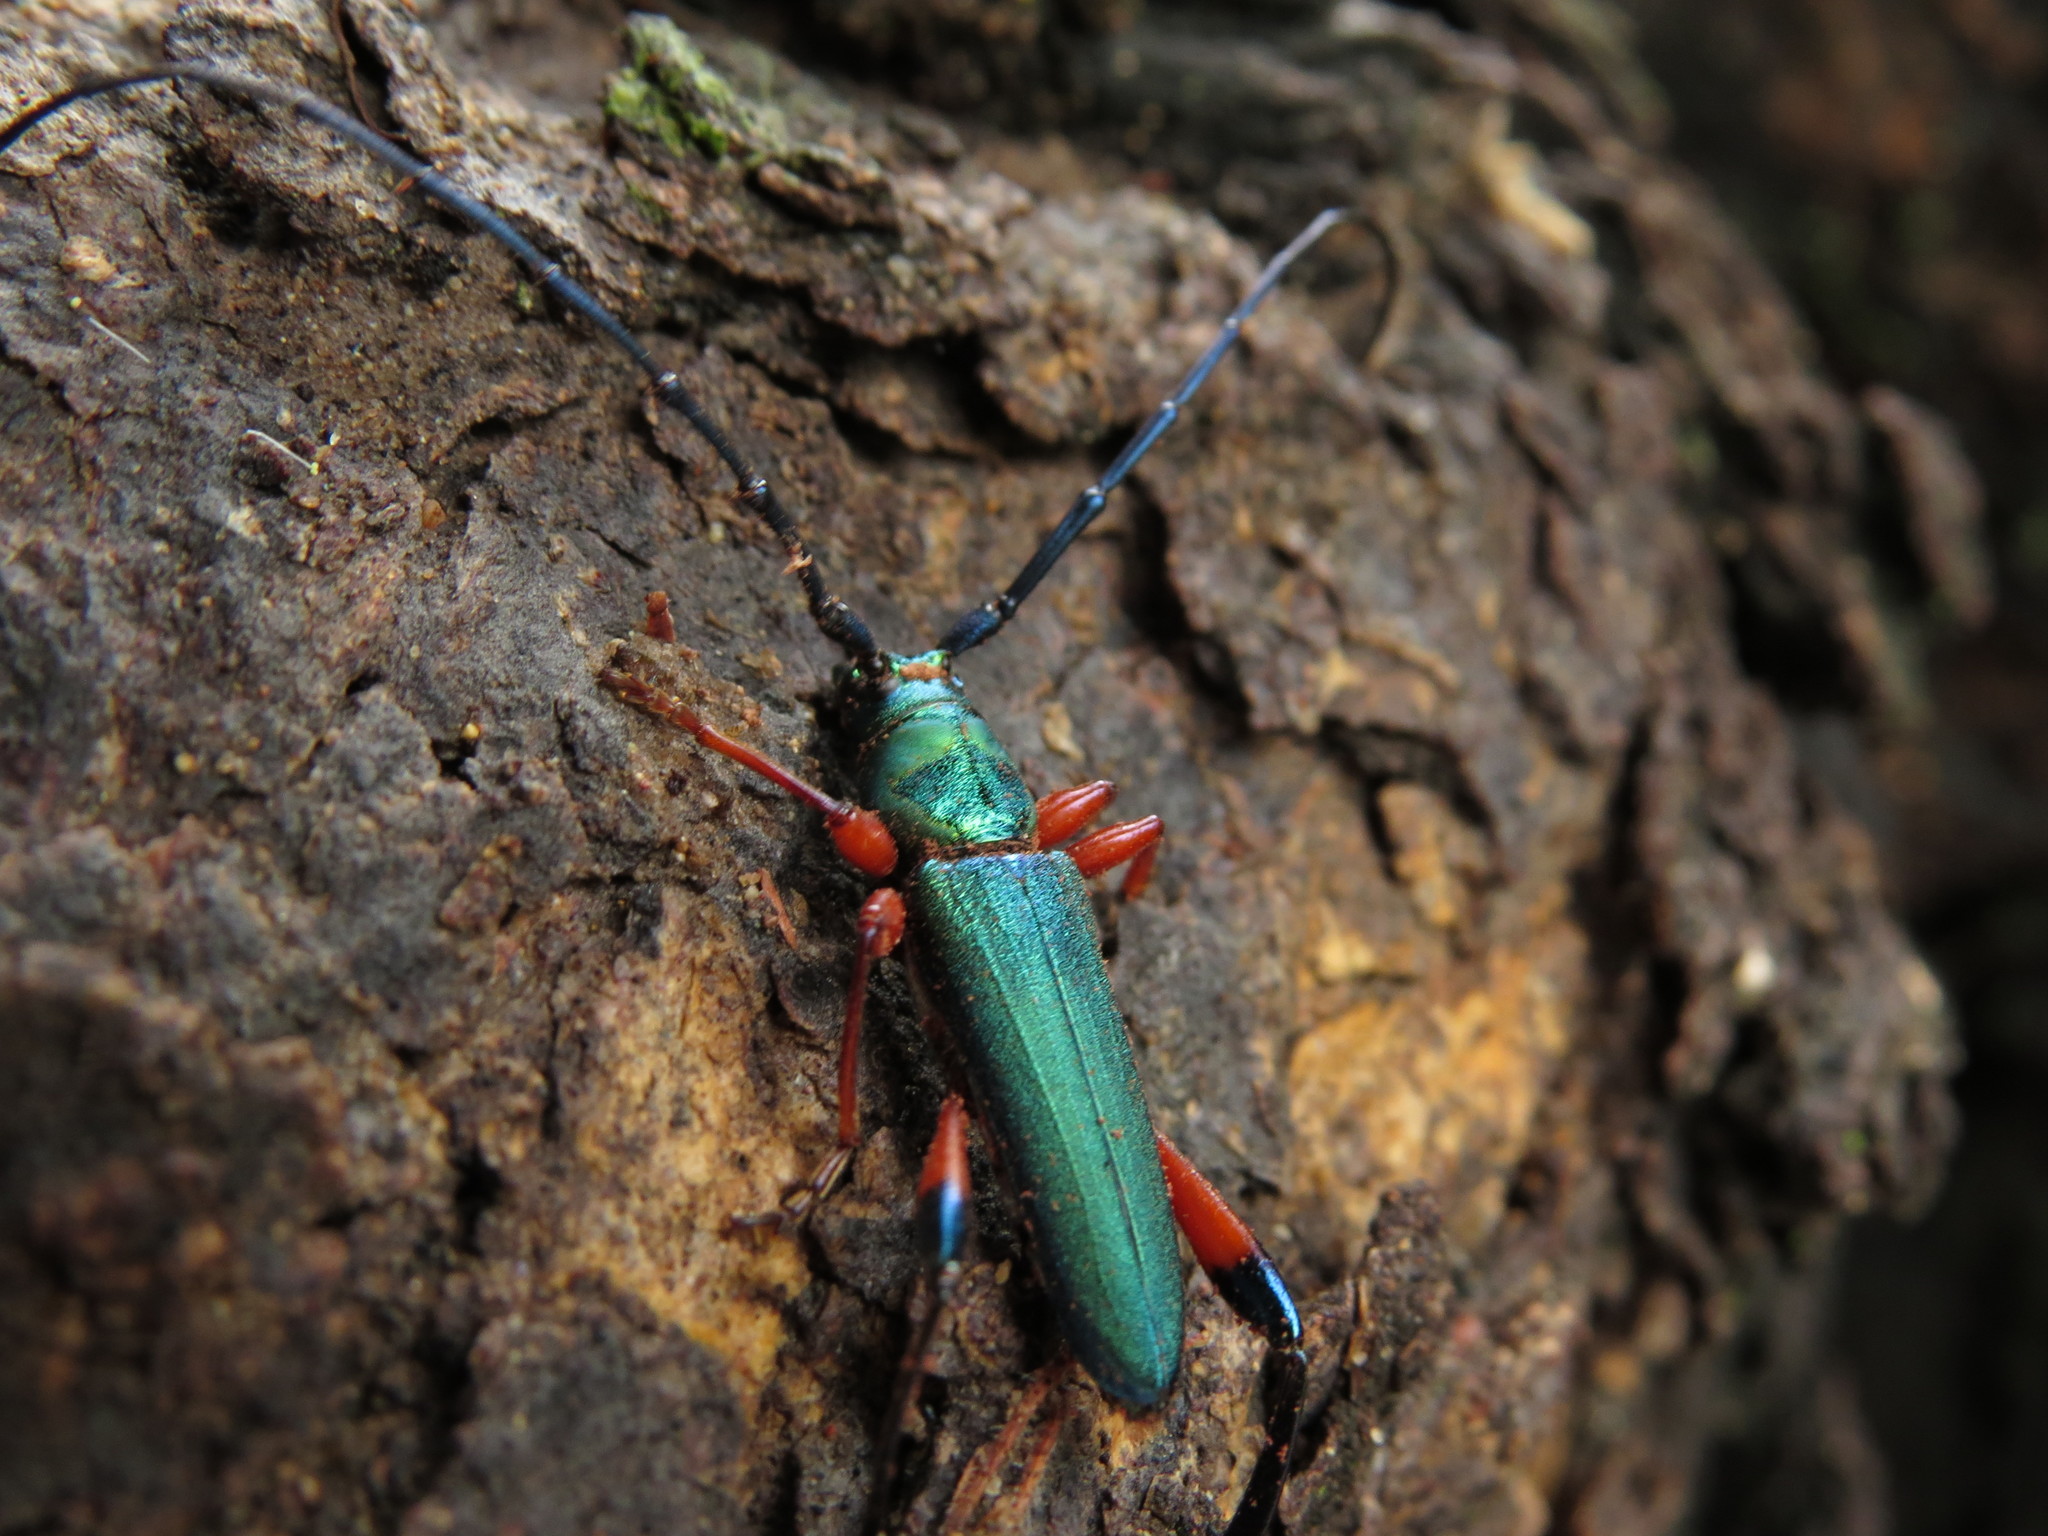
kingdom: Animalia
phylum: Arthropoda
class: Insecta
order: Coleoptera
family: Cerambycidae
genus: Litopus
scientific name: Litopus aequabilis
